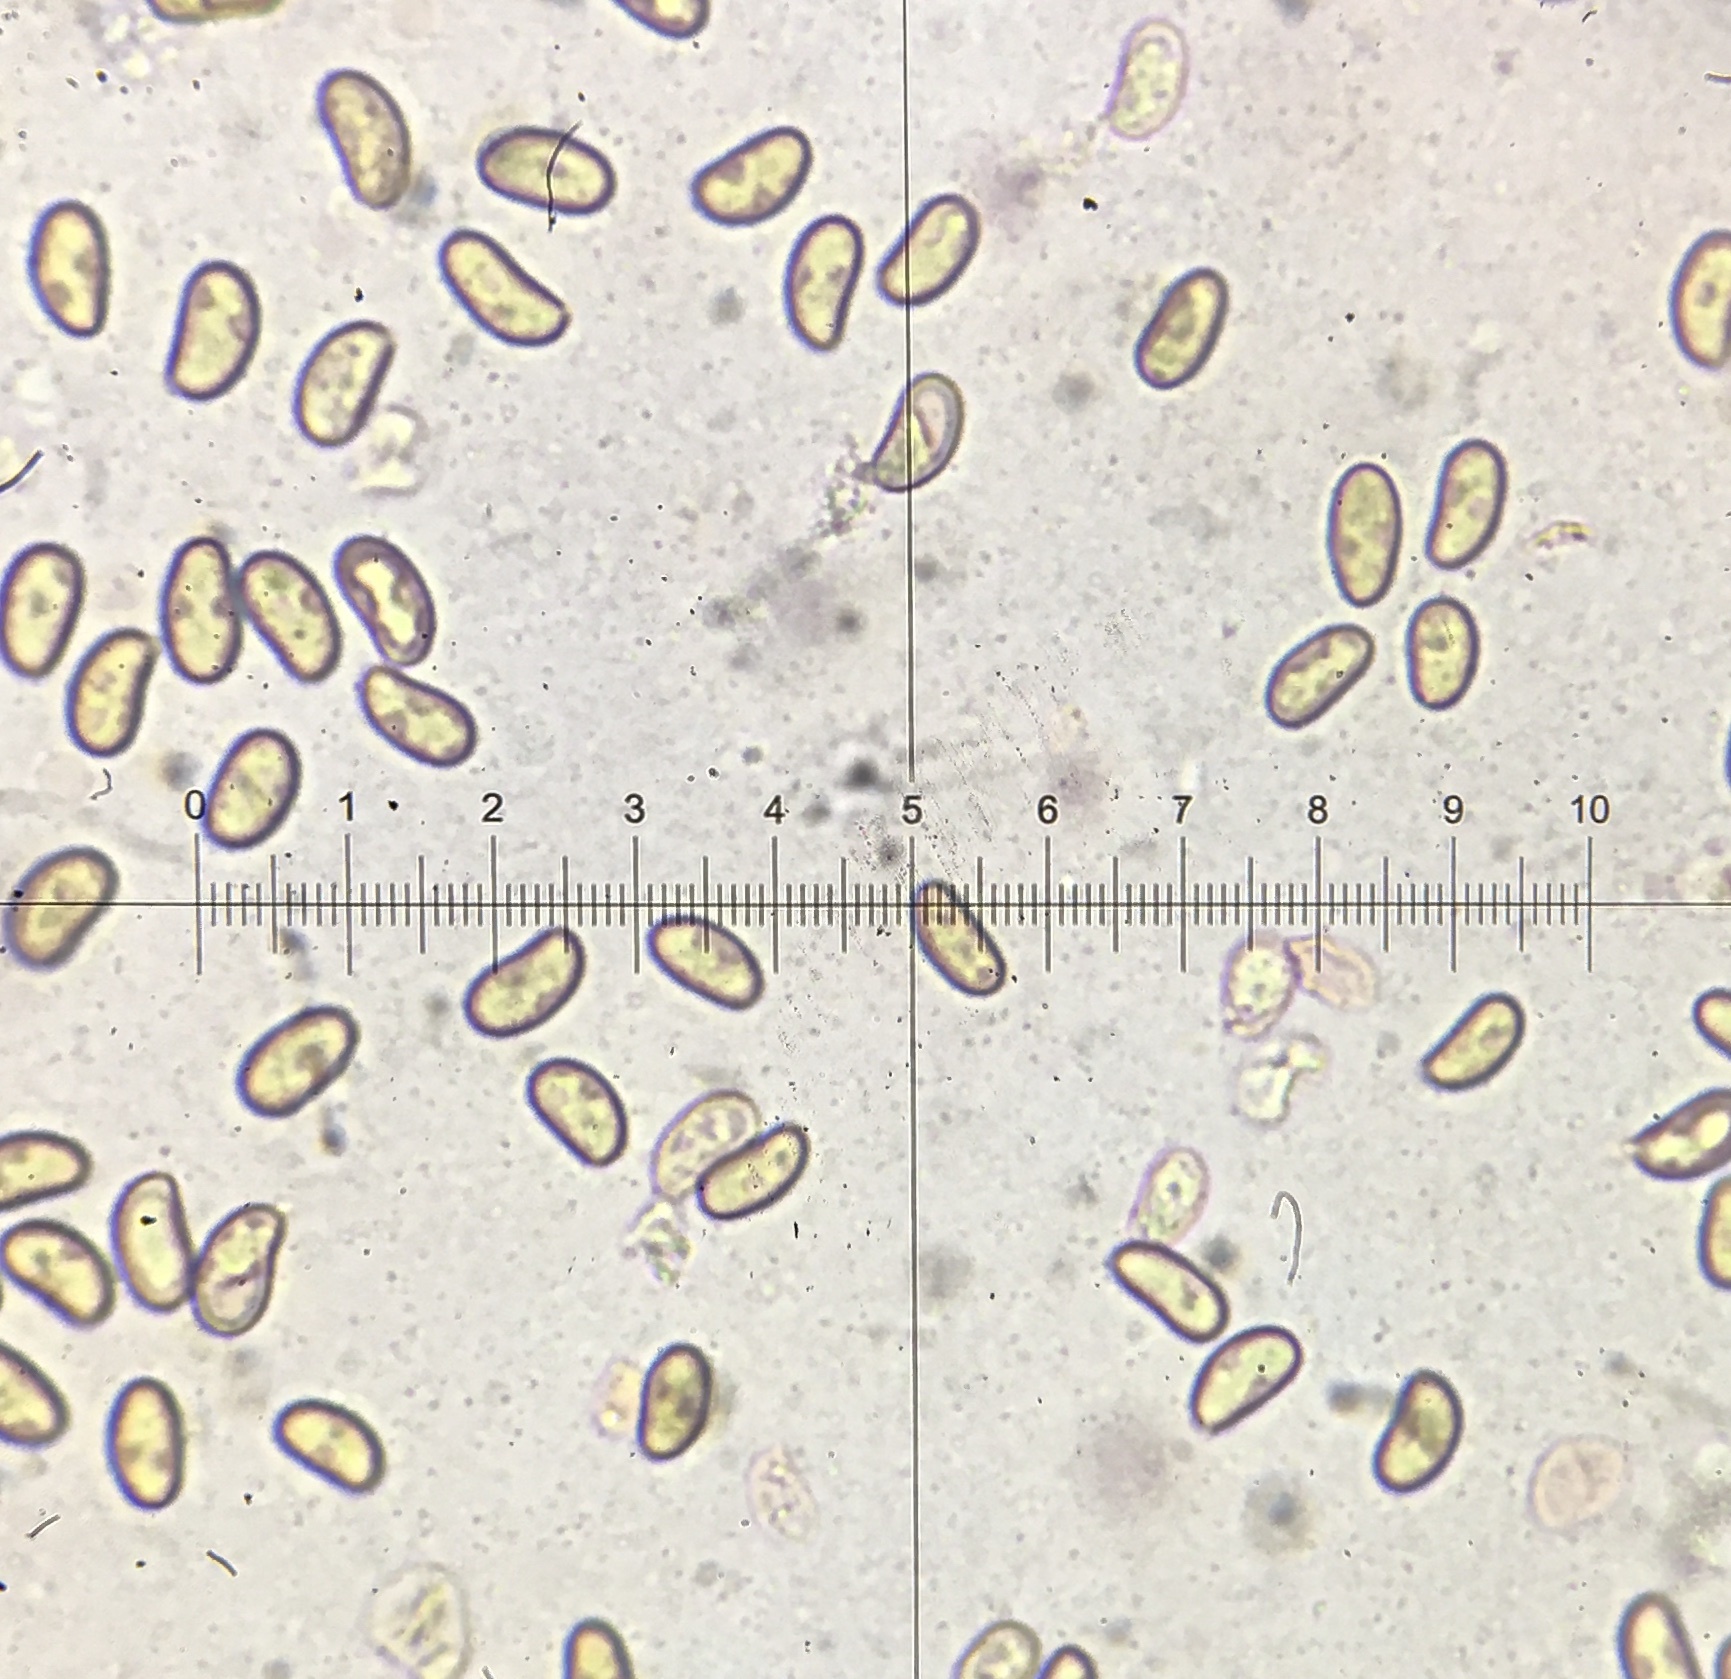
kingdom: Fungi
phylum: Basidiomycota
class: Agaricomycetes
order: Agaricales
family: Inocybaceae
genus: Inosperma
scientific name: Inosperma lanatodiscum
